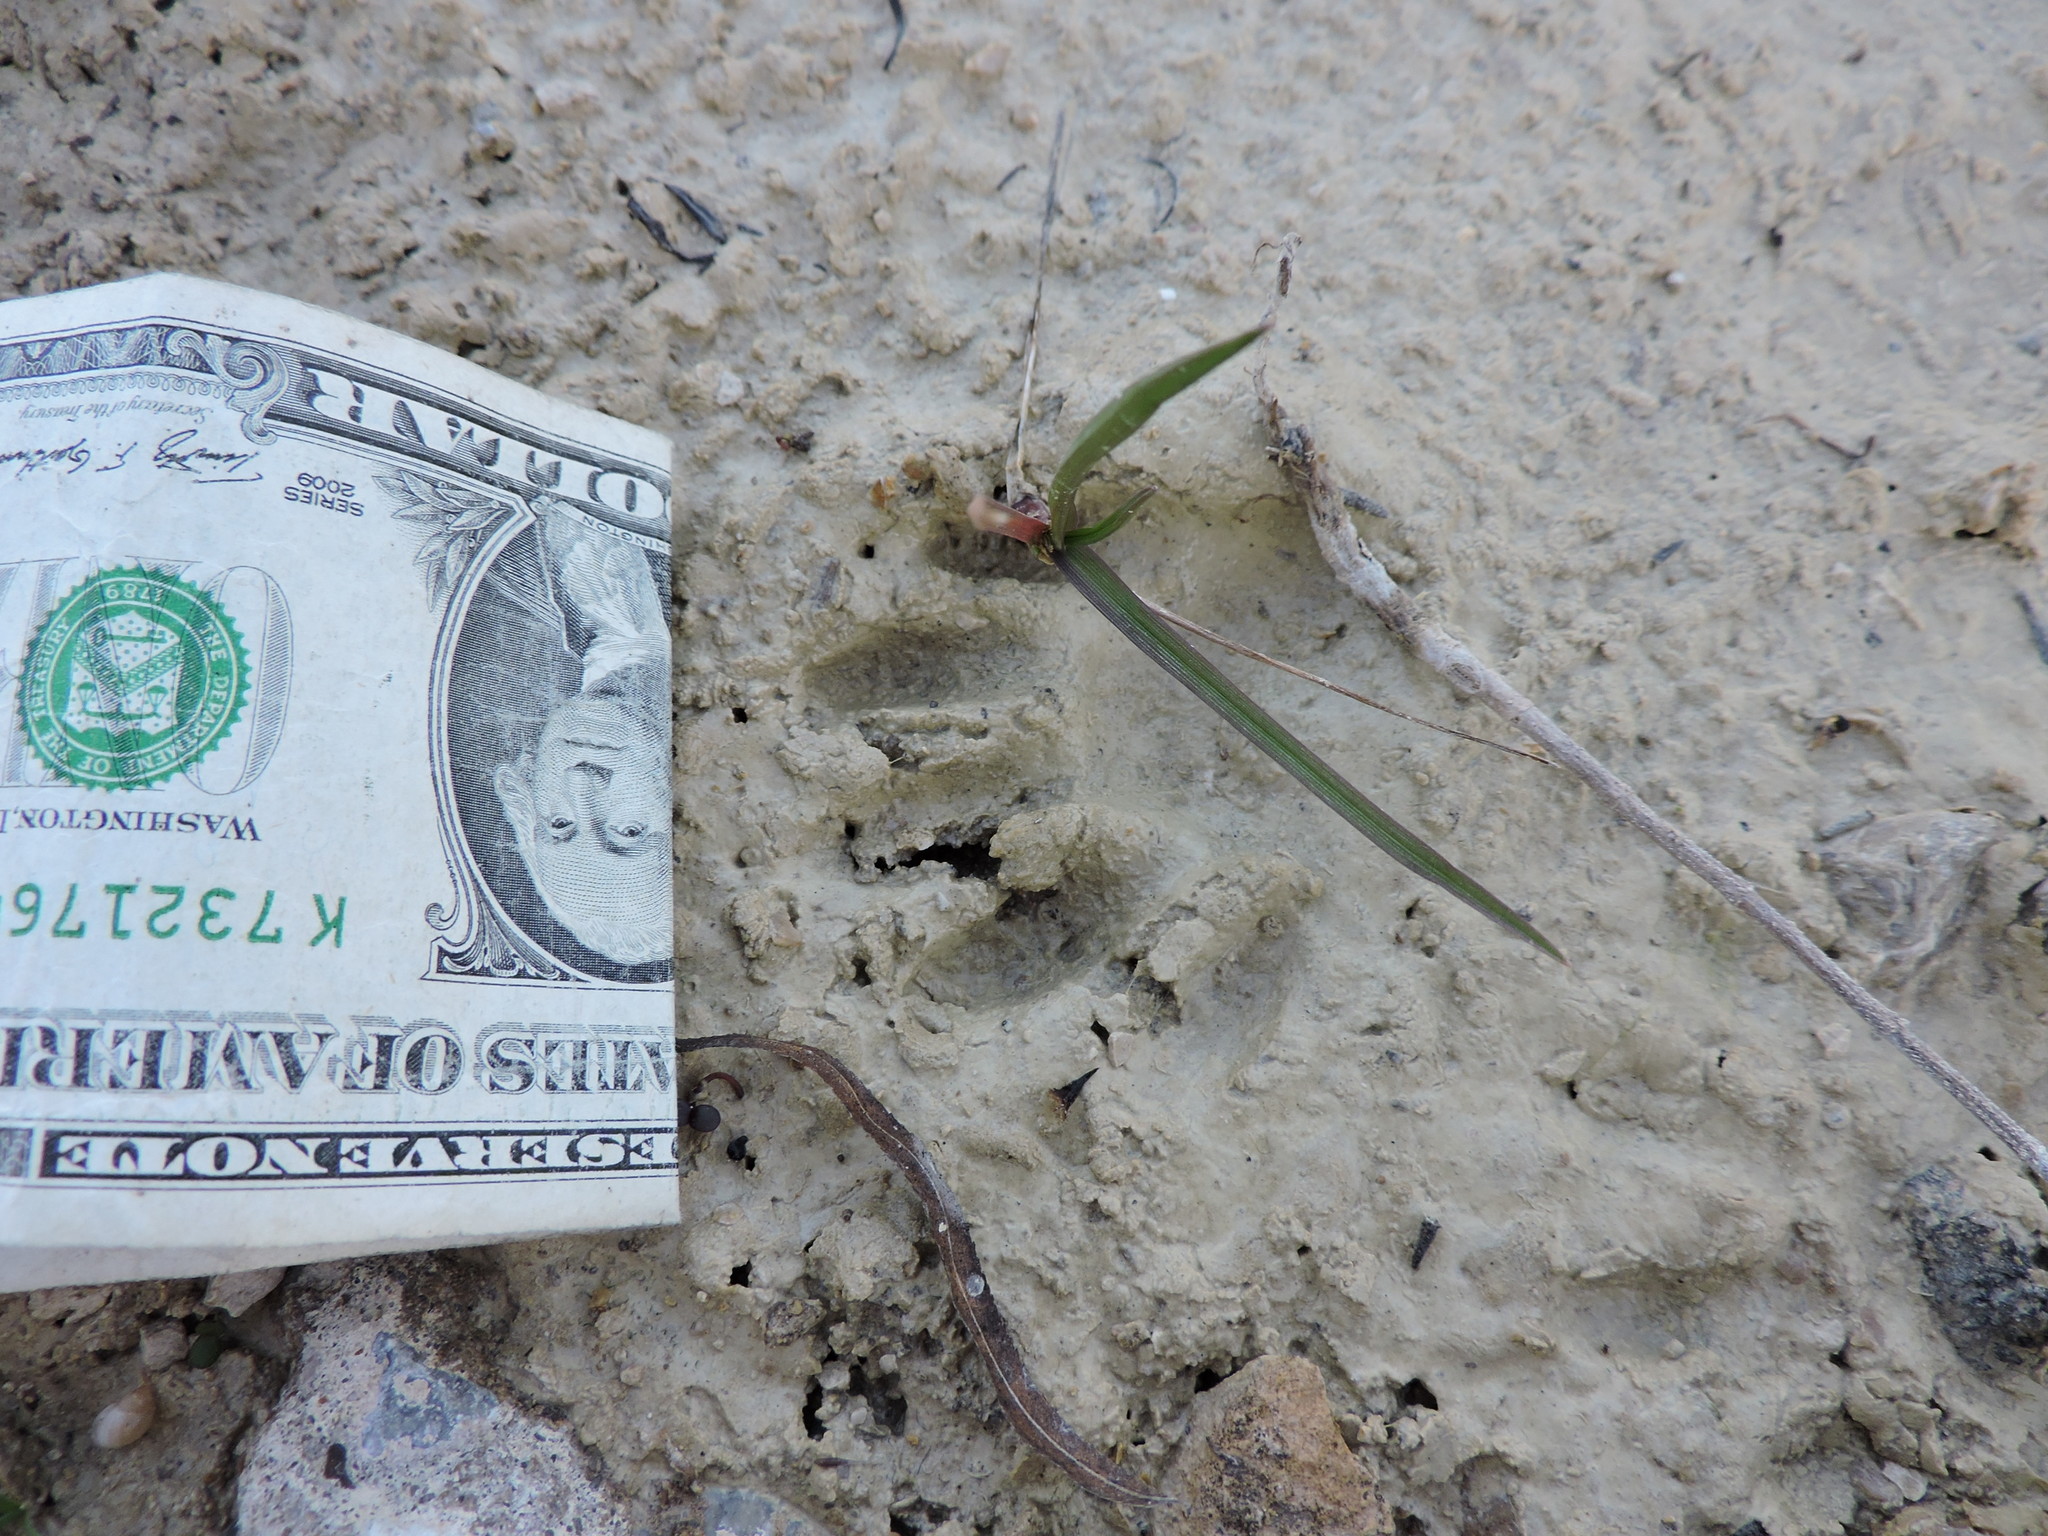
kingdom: Animalia
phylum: Chordata
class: Mammalia
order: Carnivora
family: Procyonidae
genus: Procyon
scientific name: Procyon lotor
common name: Raccoon
